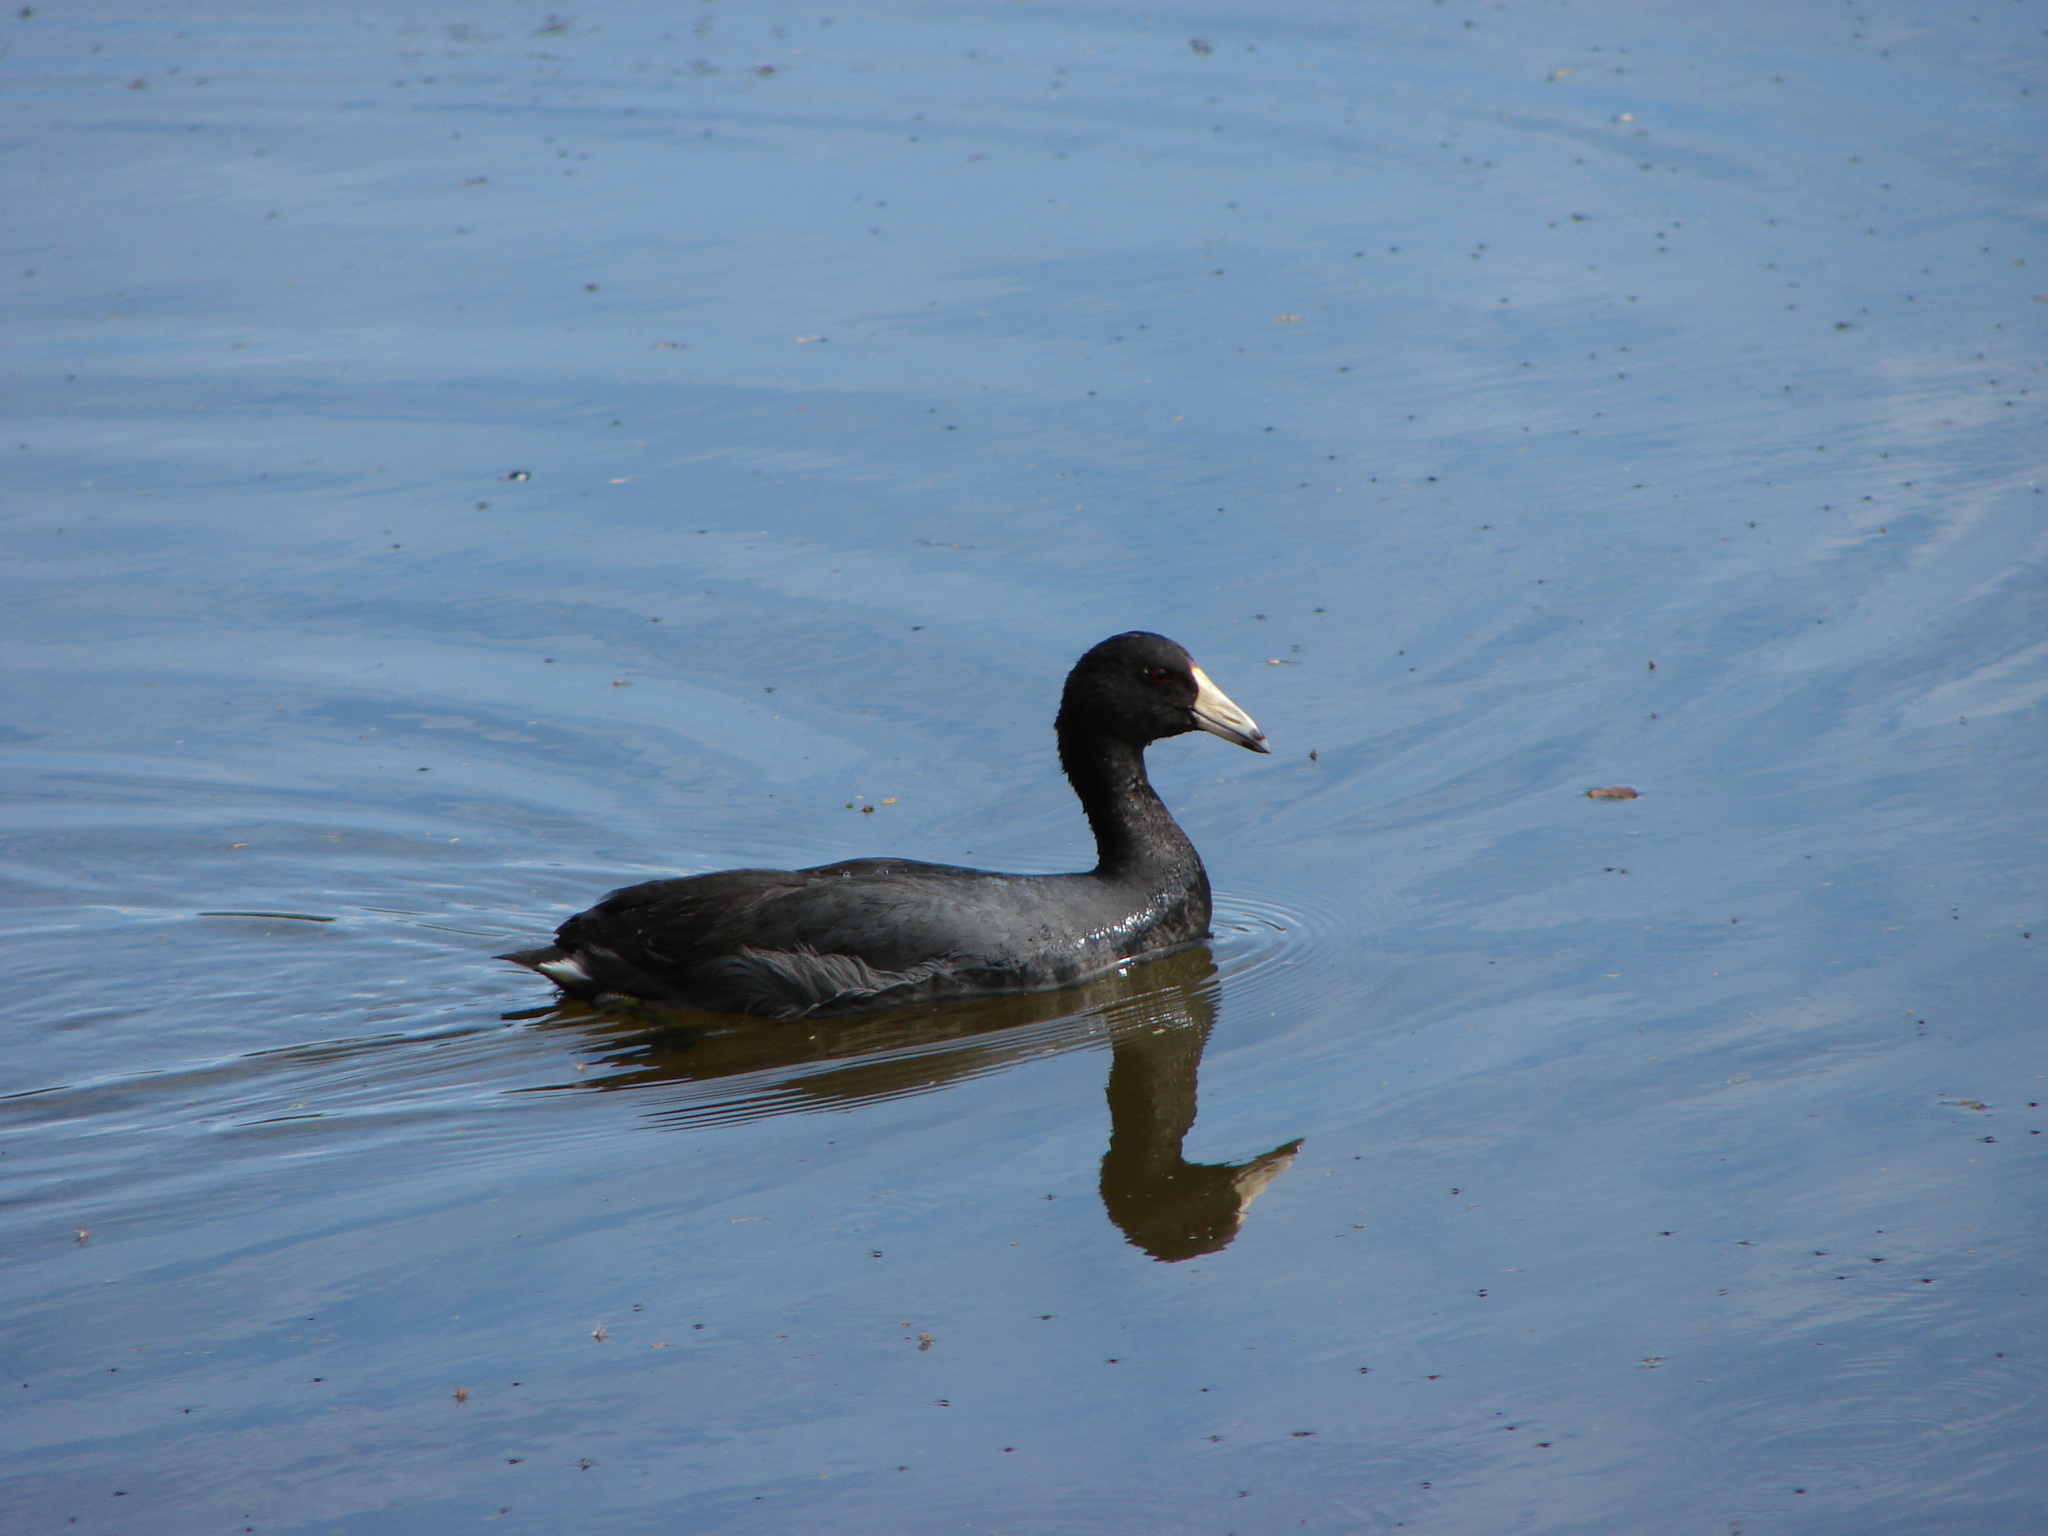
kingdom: Animalia
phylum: Chordata
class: Aves
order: Gruiformes
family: Rallidae
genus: Fulica
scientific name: Fulica americana
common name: American coot
